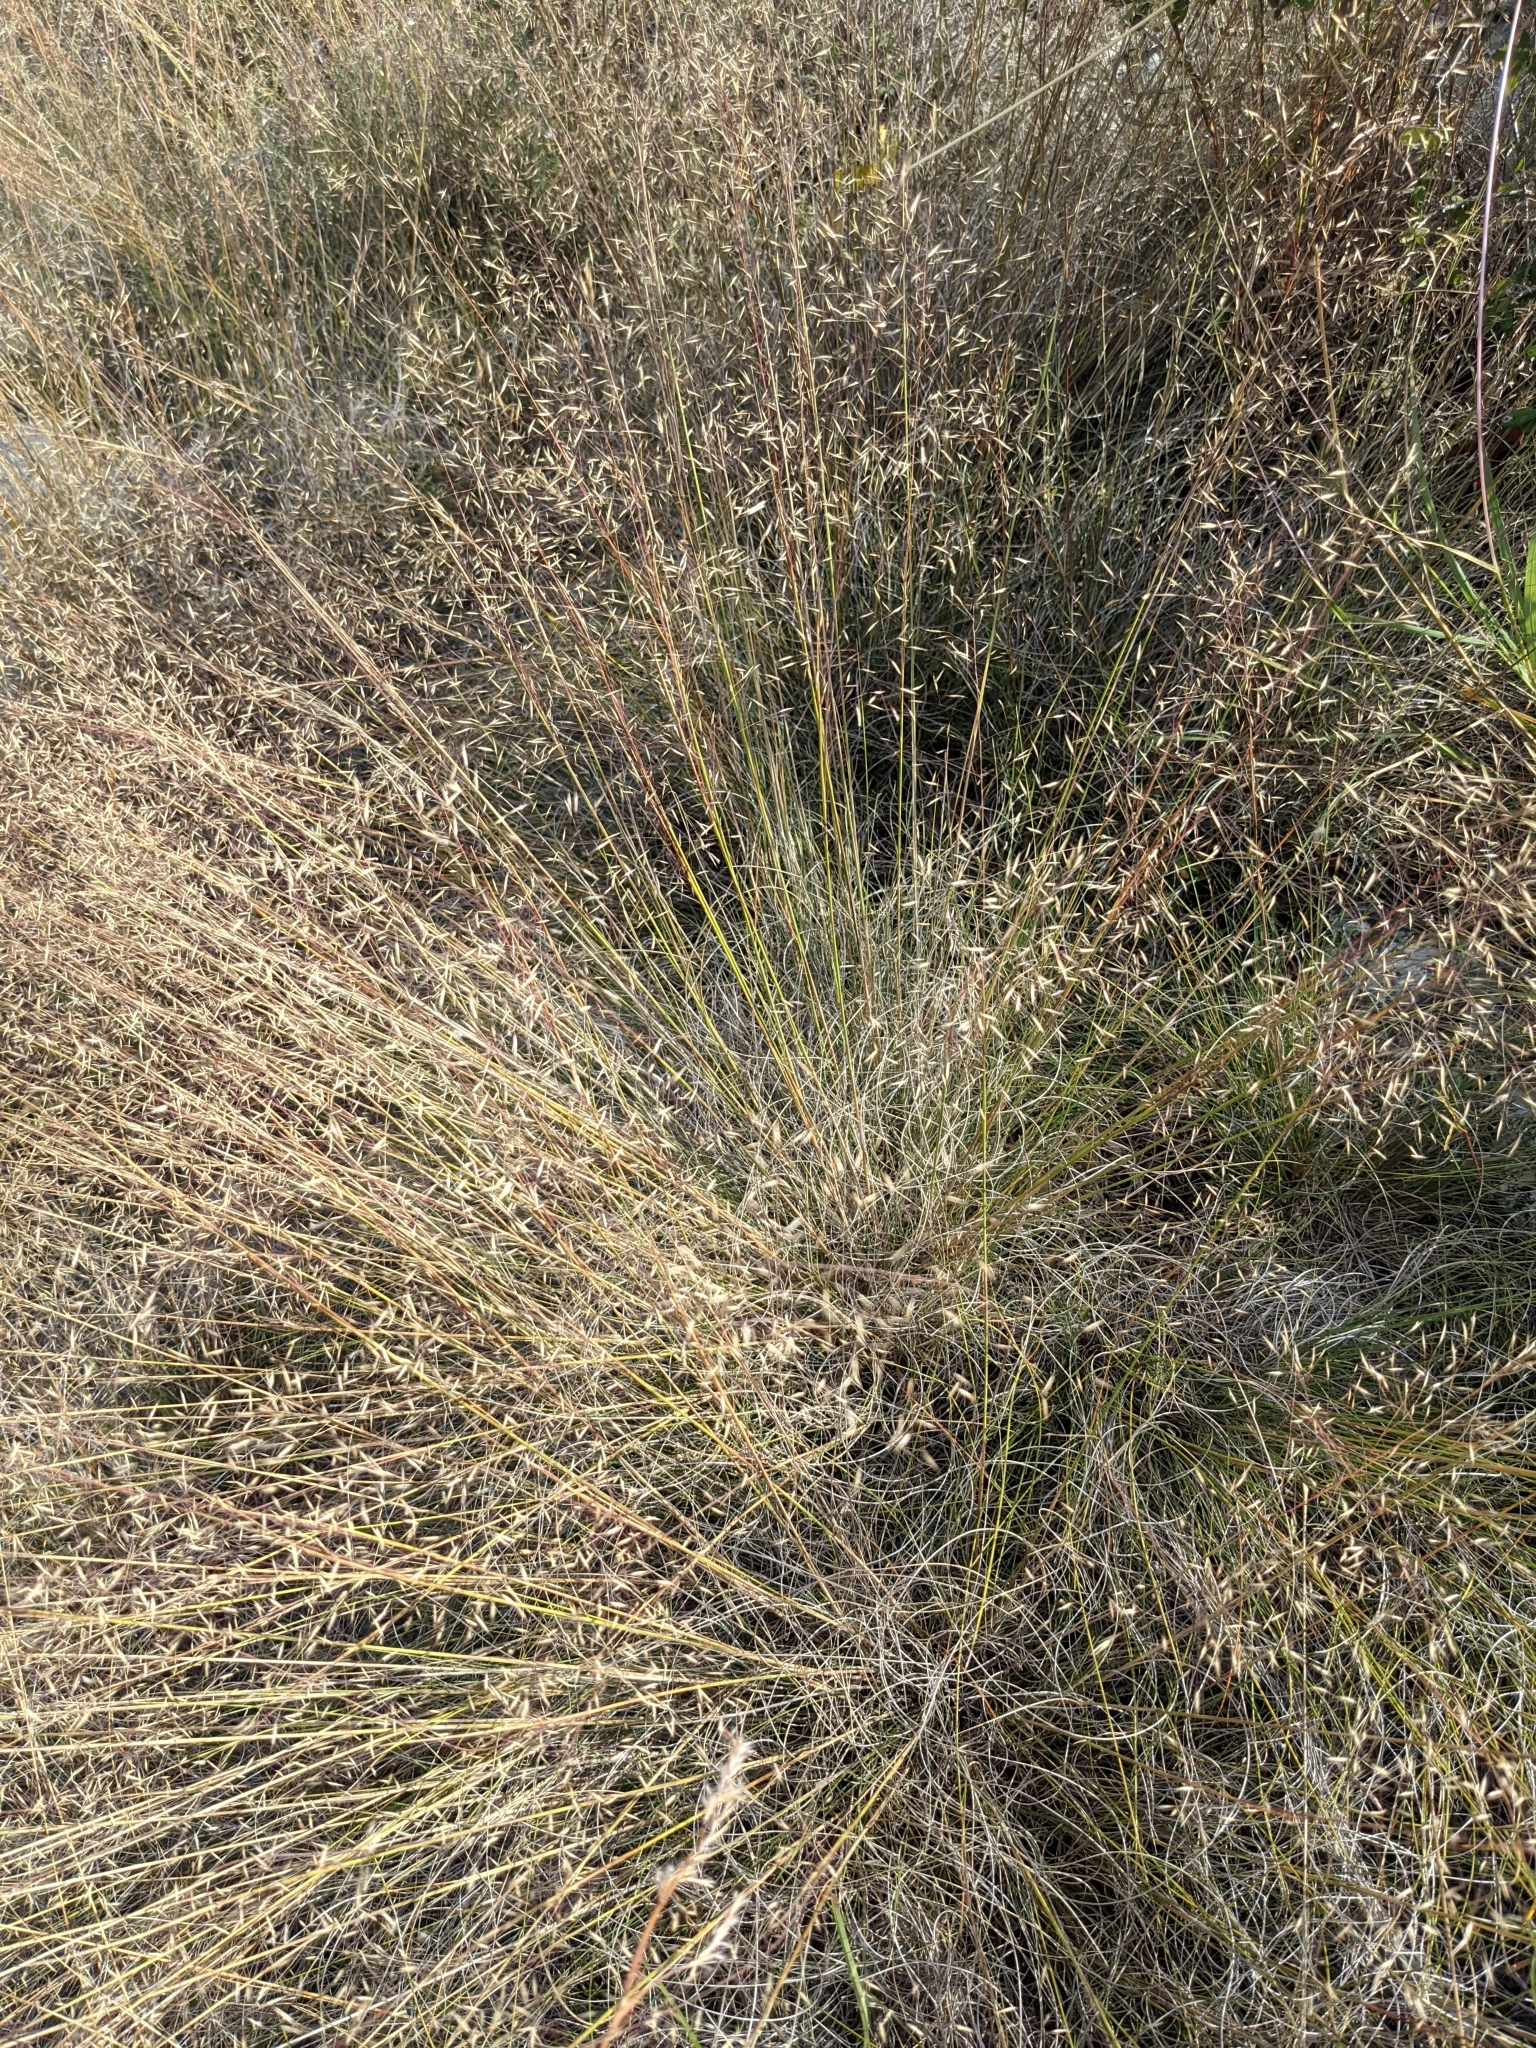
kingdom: Plantae
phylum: Tracheophyta
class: Liliopsida
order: Poales
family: Poaceae
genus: Muhlenbergia
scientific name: Muhlenbergia reverchonii
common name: Seep muhly
